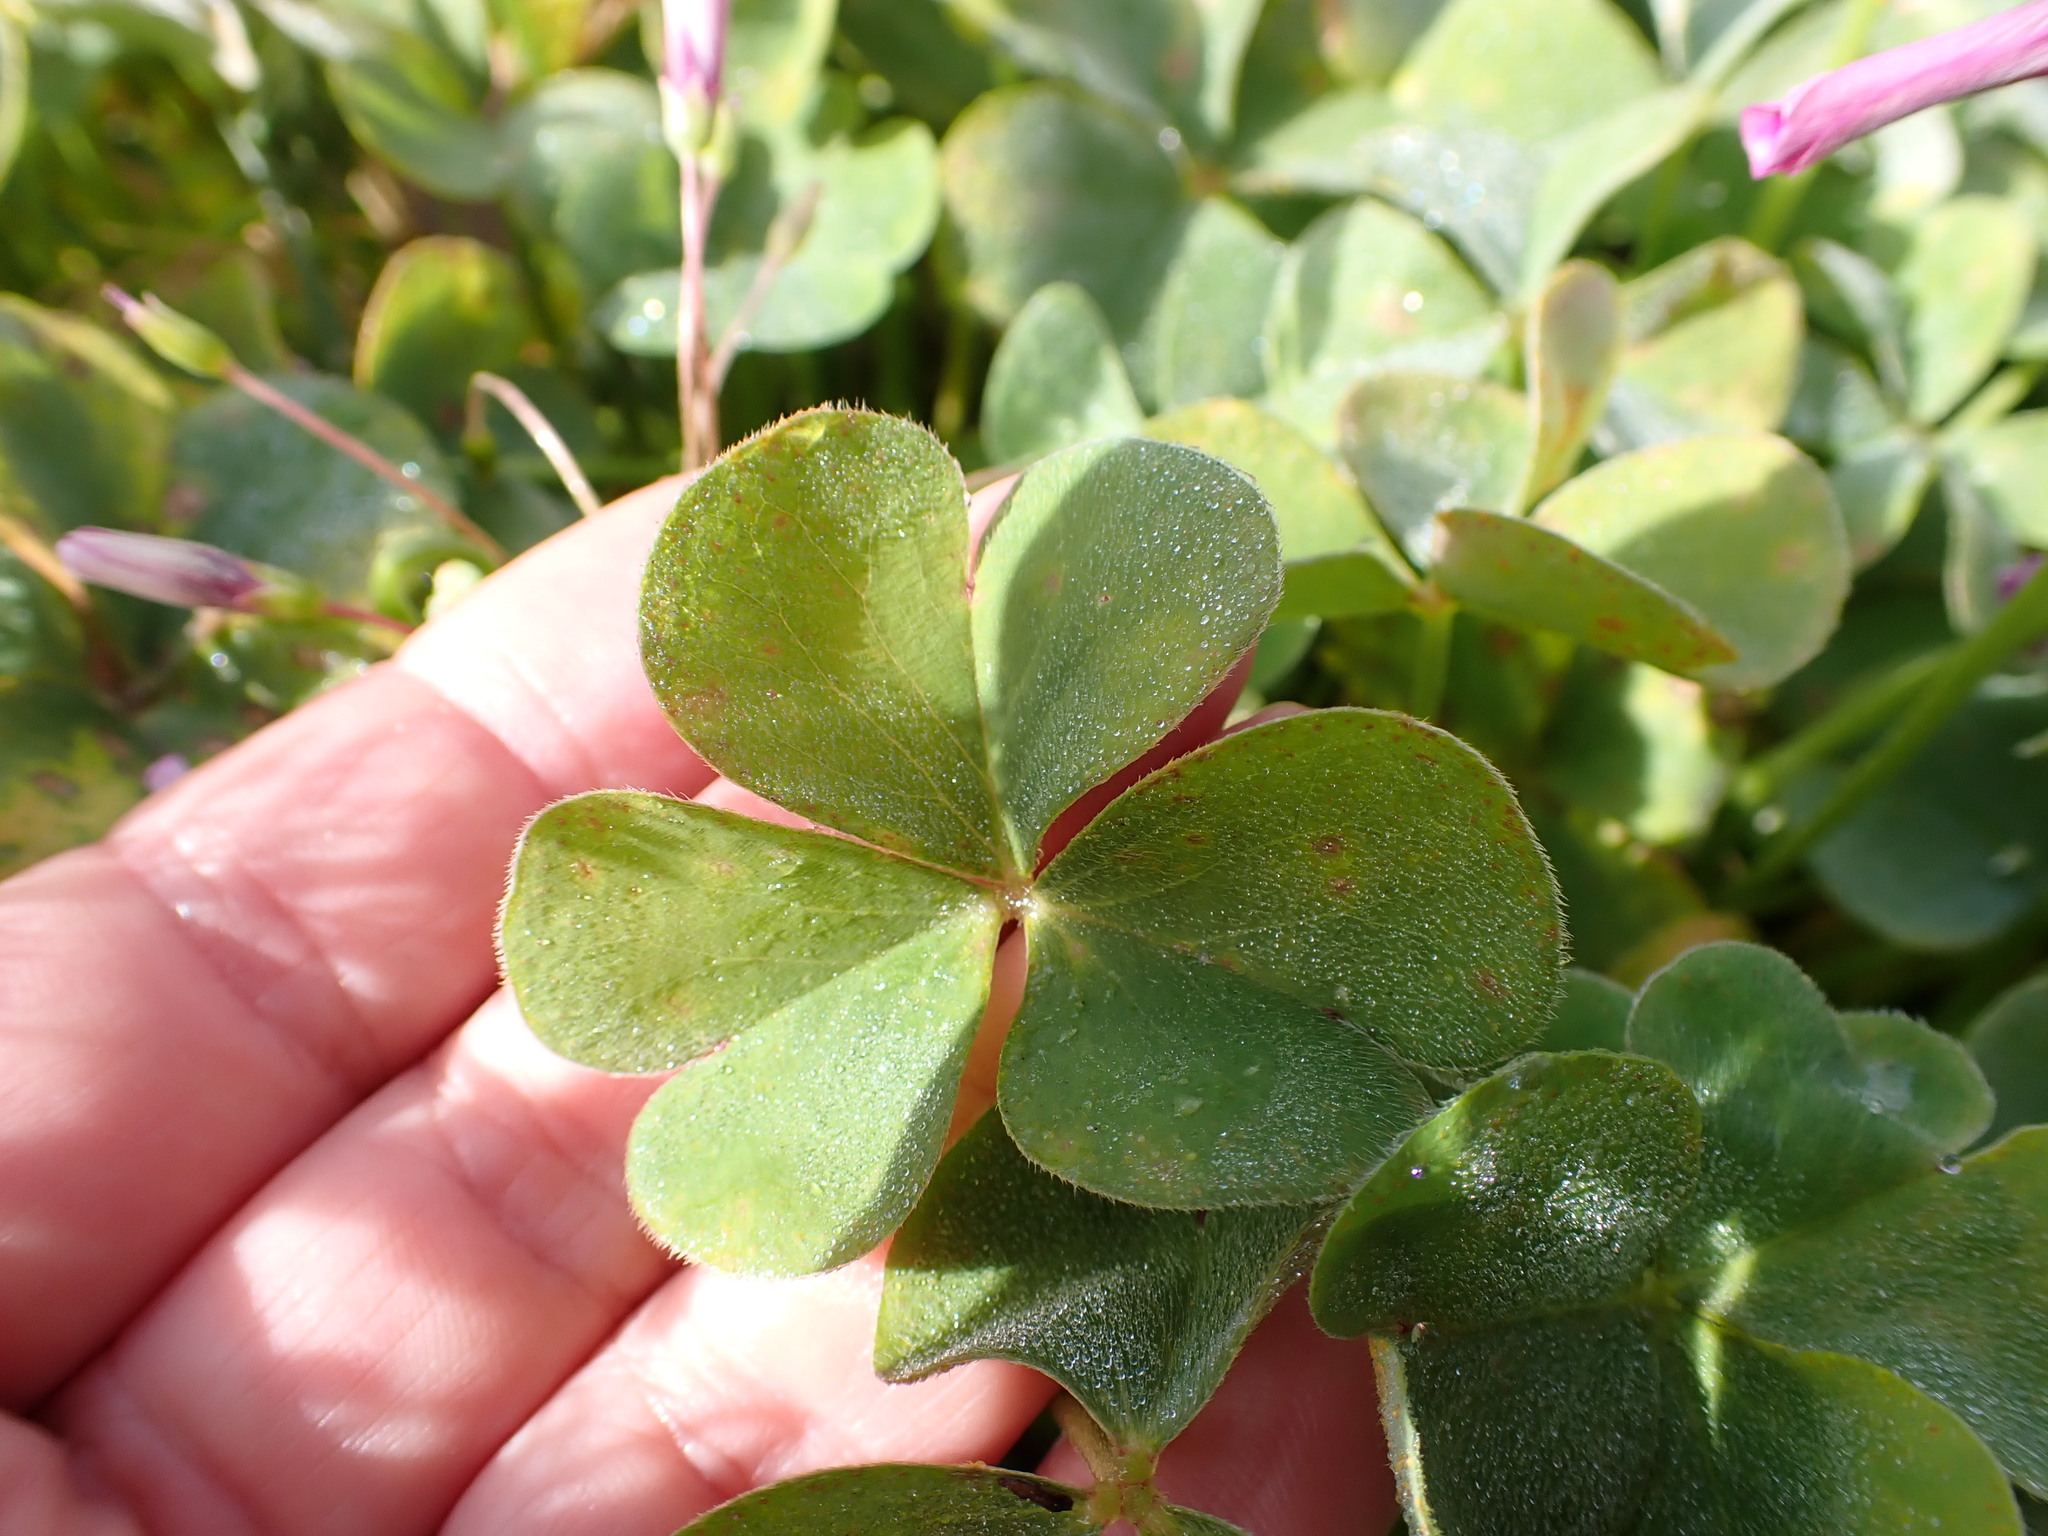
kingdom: Plantae
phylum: Tracheophyta
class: Magnoliopsida
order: Oxalidales
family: Oxalidaceae
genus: Oxalis
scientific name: Oxalis articulata
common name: Pink-sorrel
